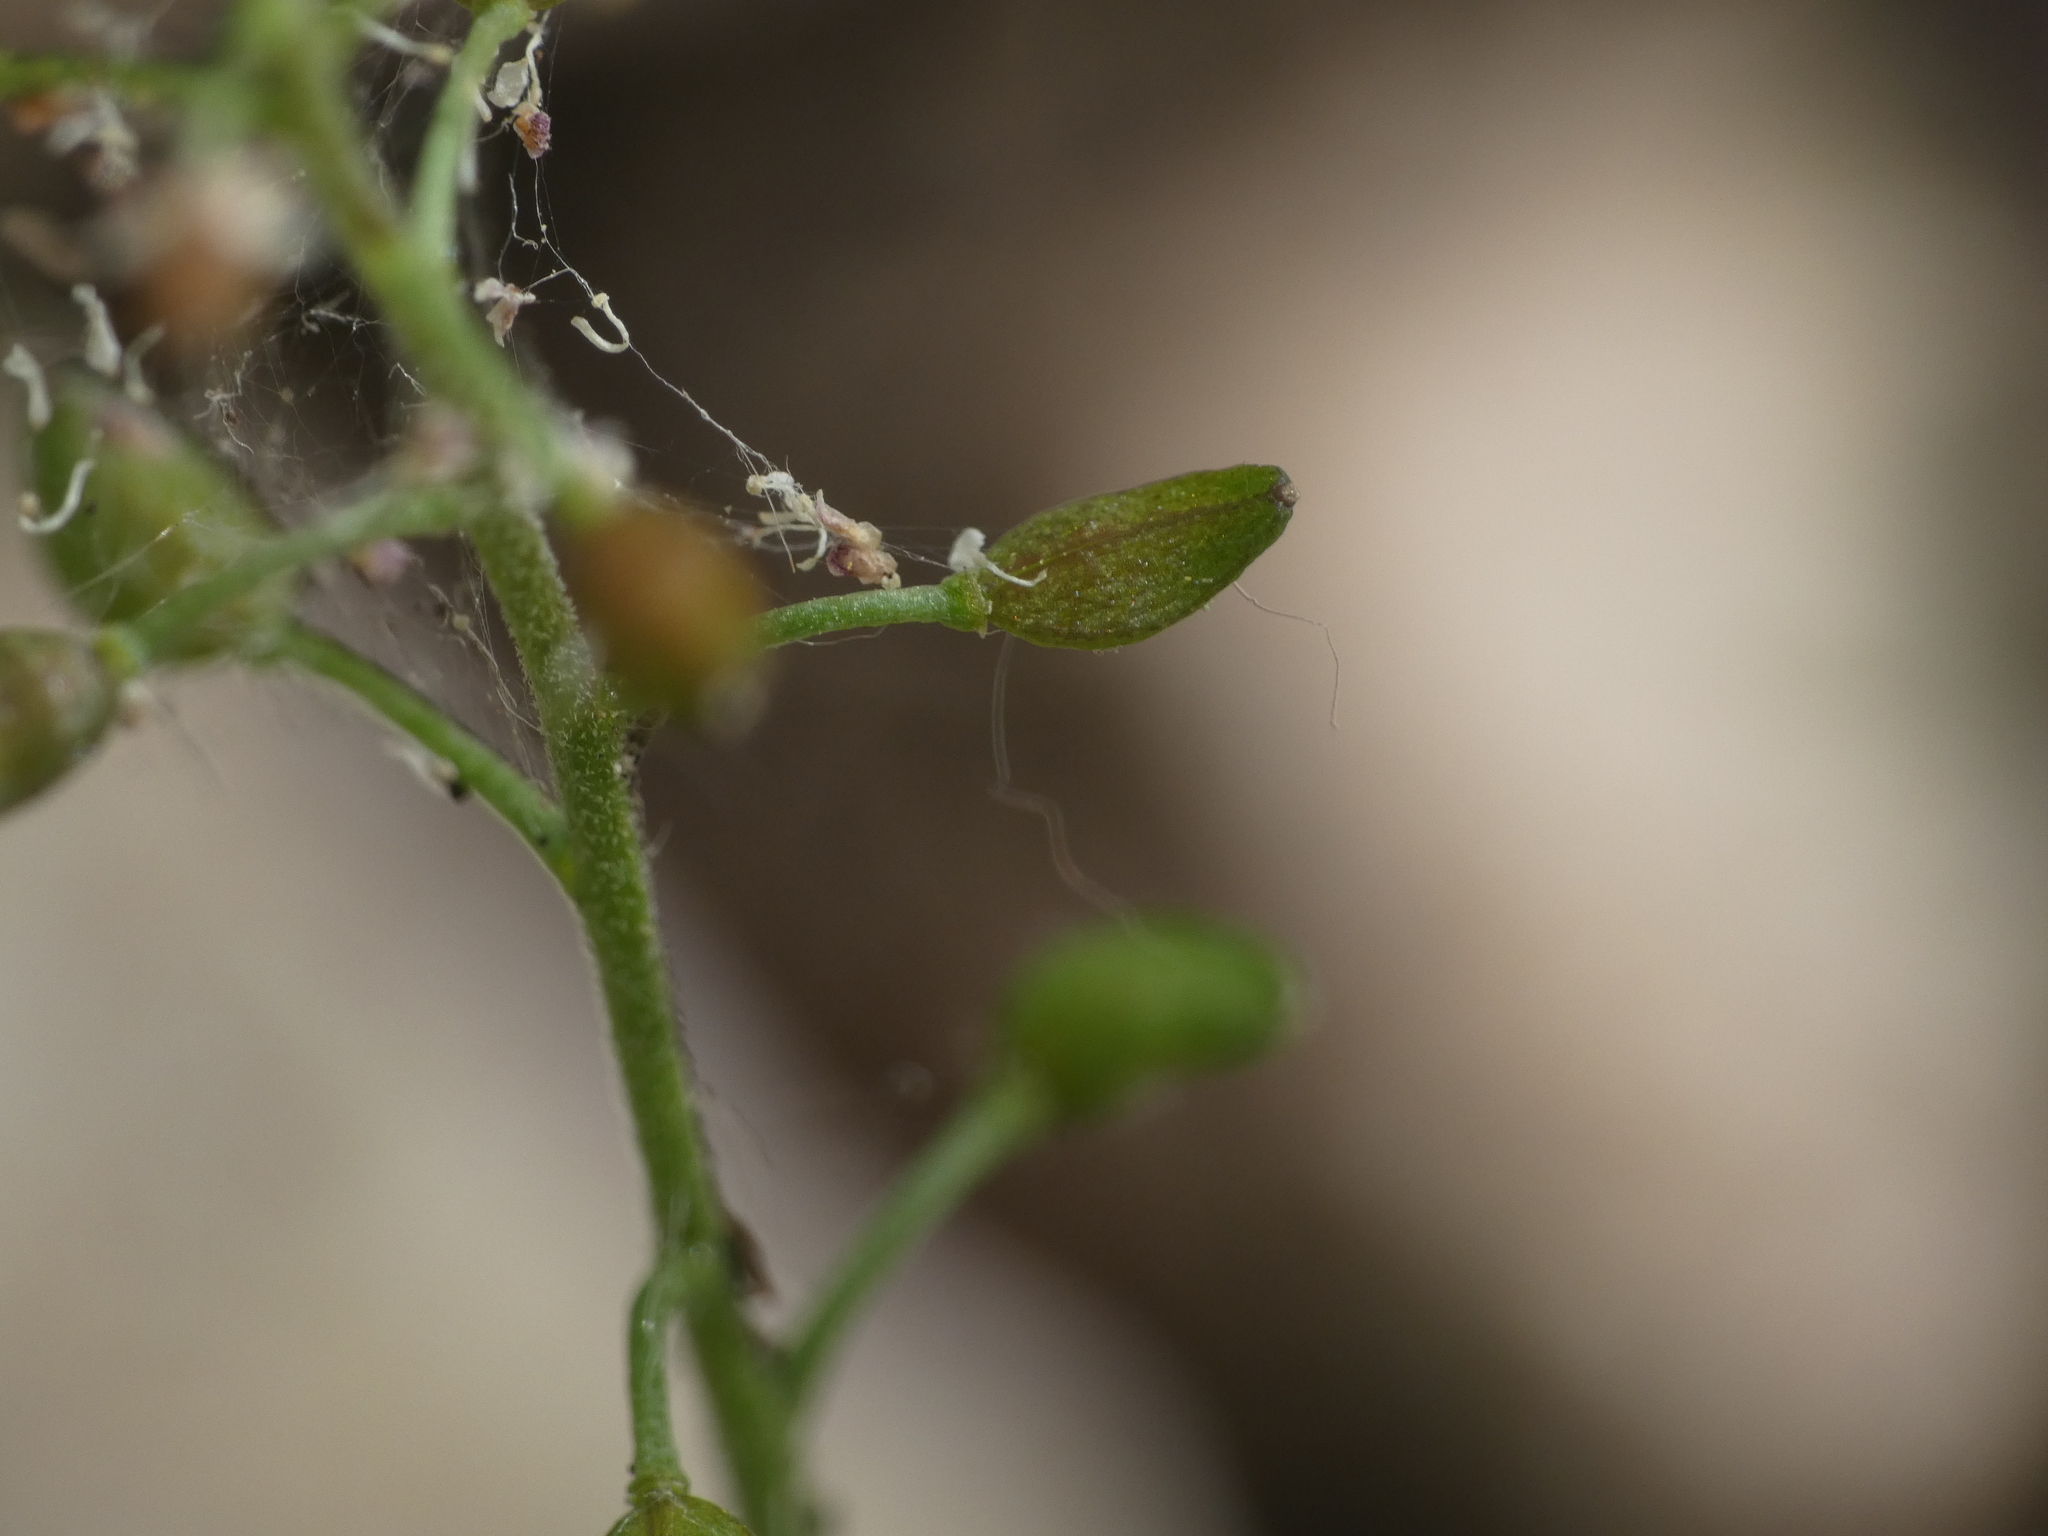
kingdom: Plantae
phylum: Tracheophyta
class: Magnoliopsida
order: Brassicales
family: Brassicaceae
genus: Hornungia
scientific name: Hornungia petraea
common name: Hutchinsia
